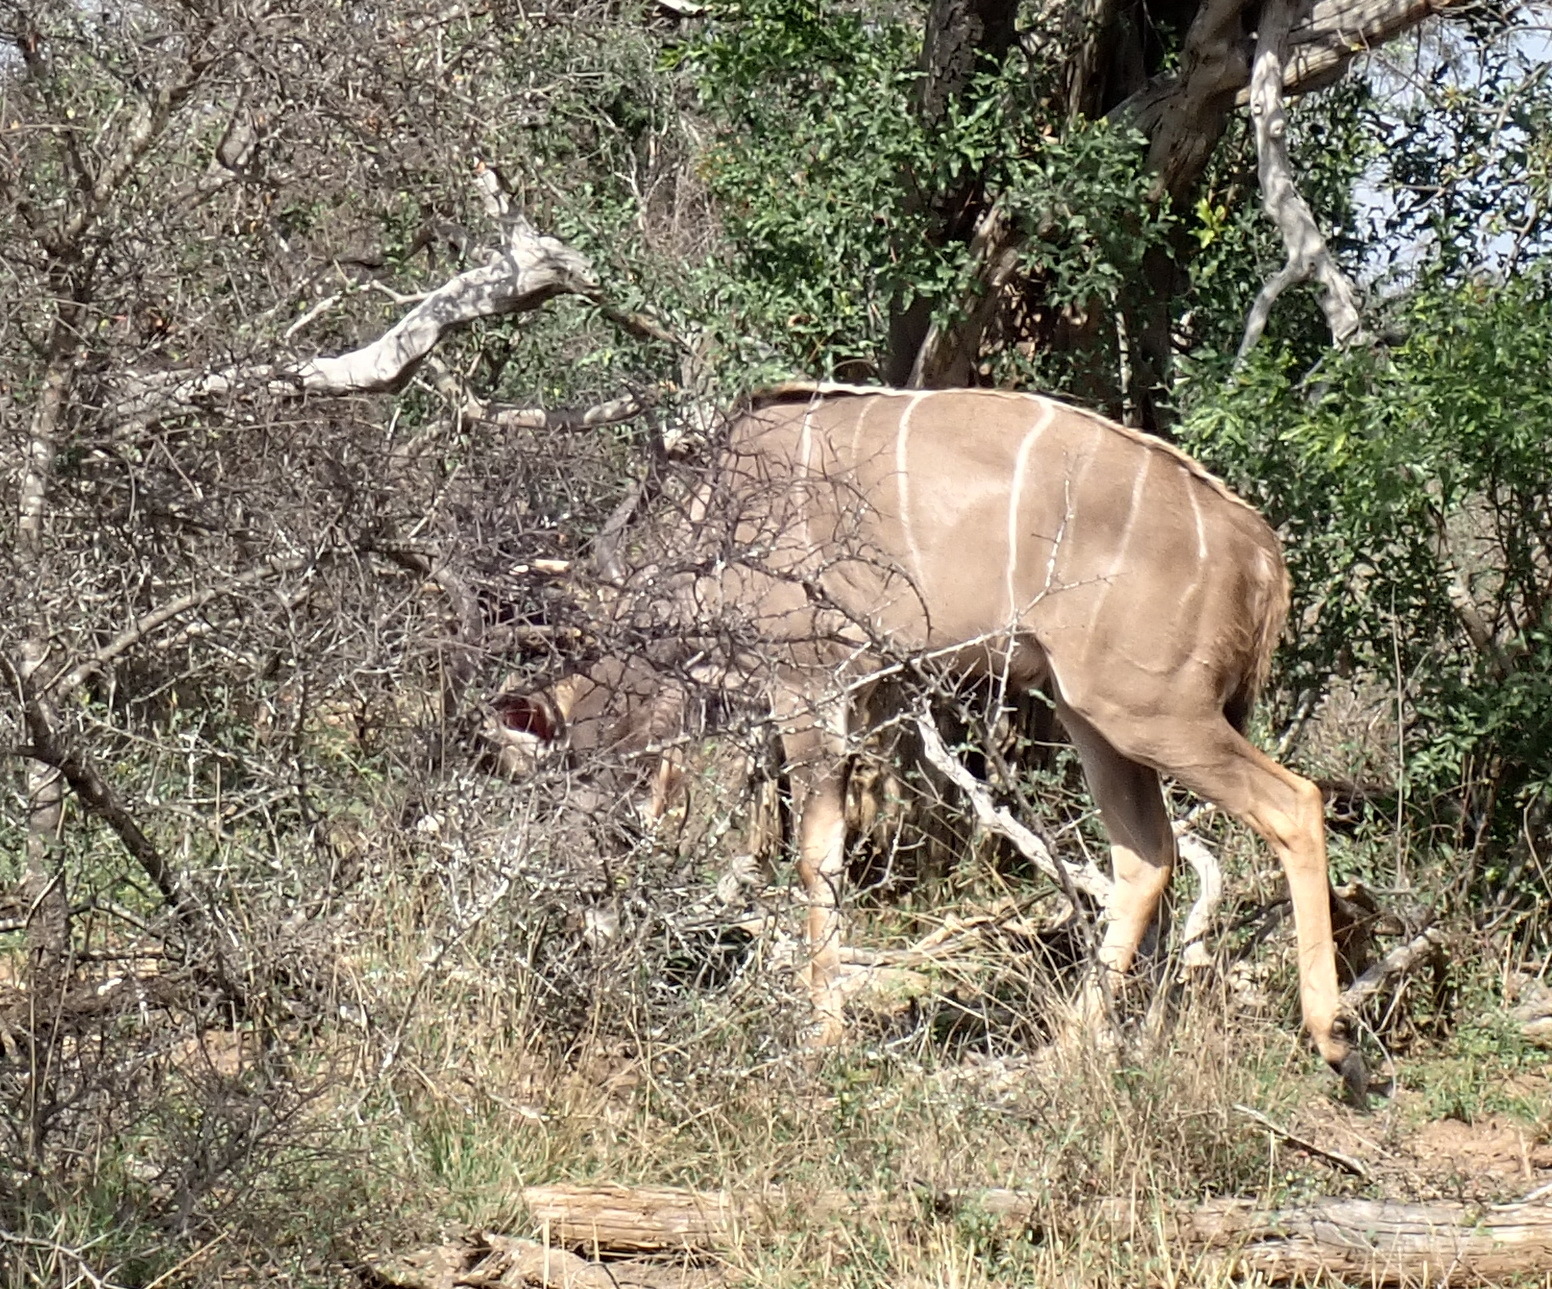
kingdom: Animalia
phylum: Chordata
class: Mammalia
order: Artiodactyla
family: Bovidae
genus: Tragelaphus
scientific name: Tragelaphus strepsiceros
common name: Greater kudu
